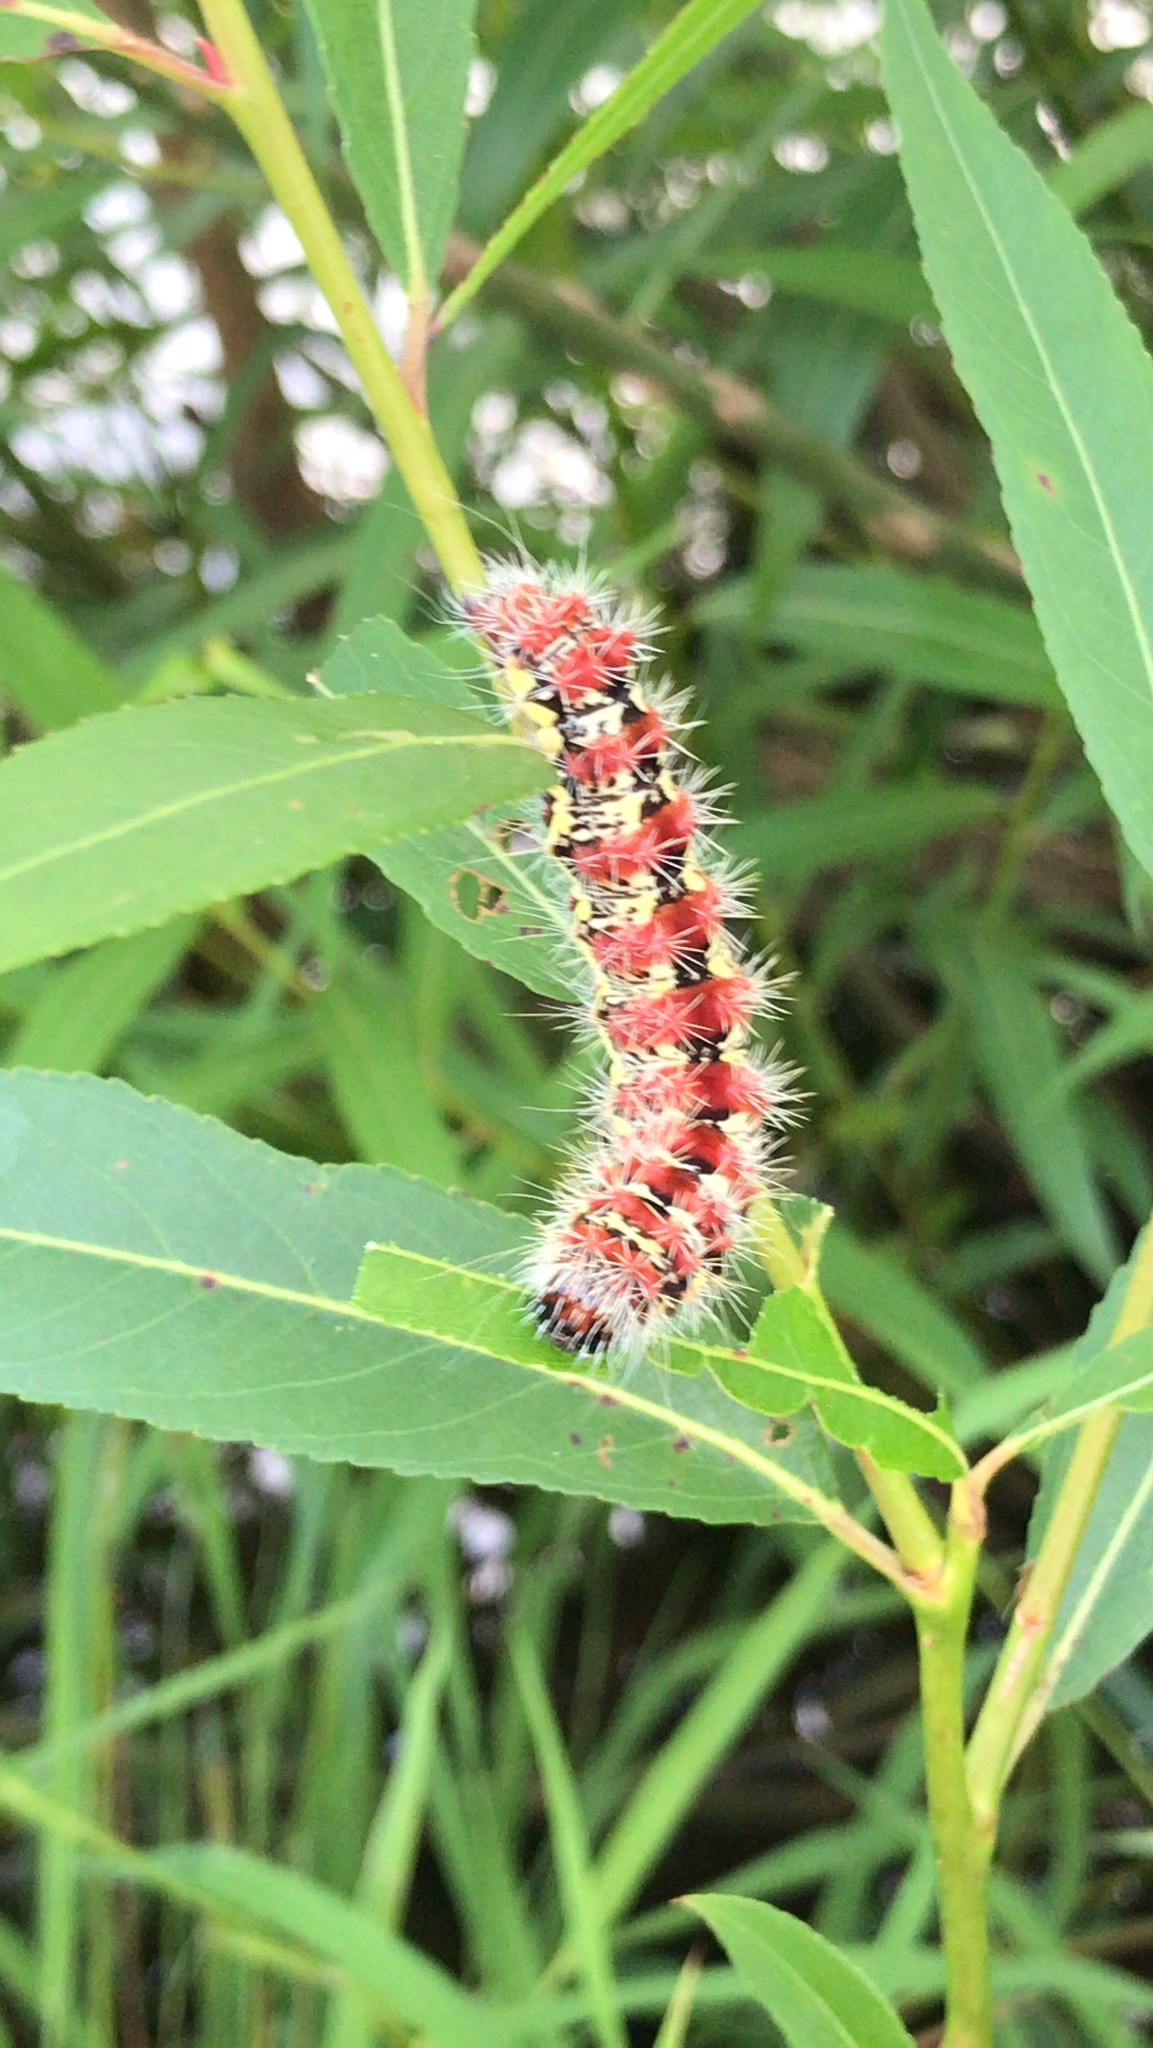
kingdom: Animalia
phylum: Arthropoda
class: Insecta
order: Lepidoptera
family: Noctuidae
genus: Acronicta
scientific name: Acronicta oblinita
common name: Smeared dagger
